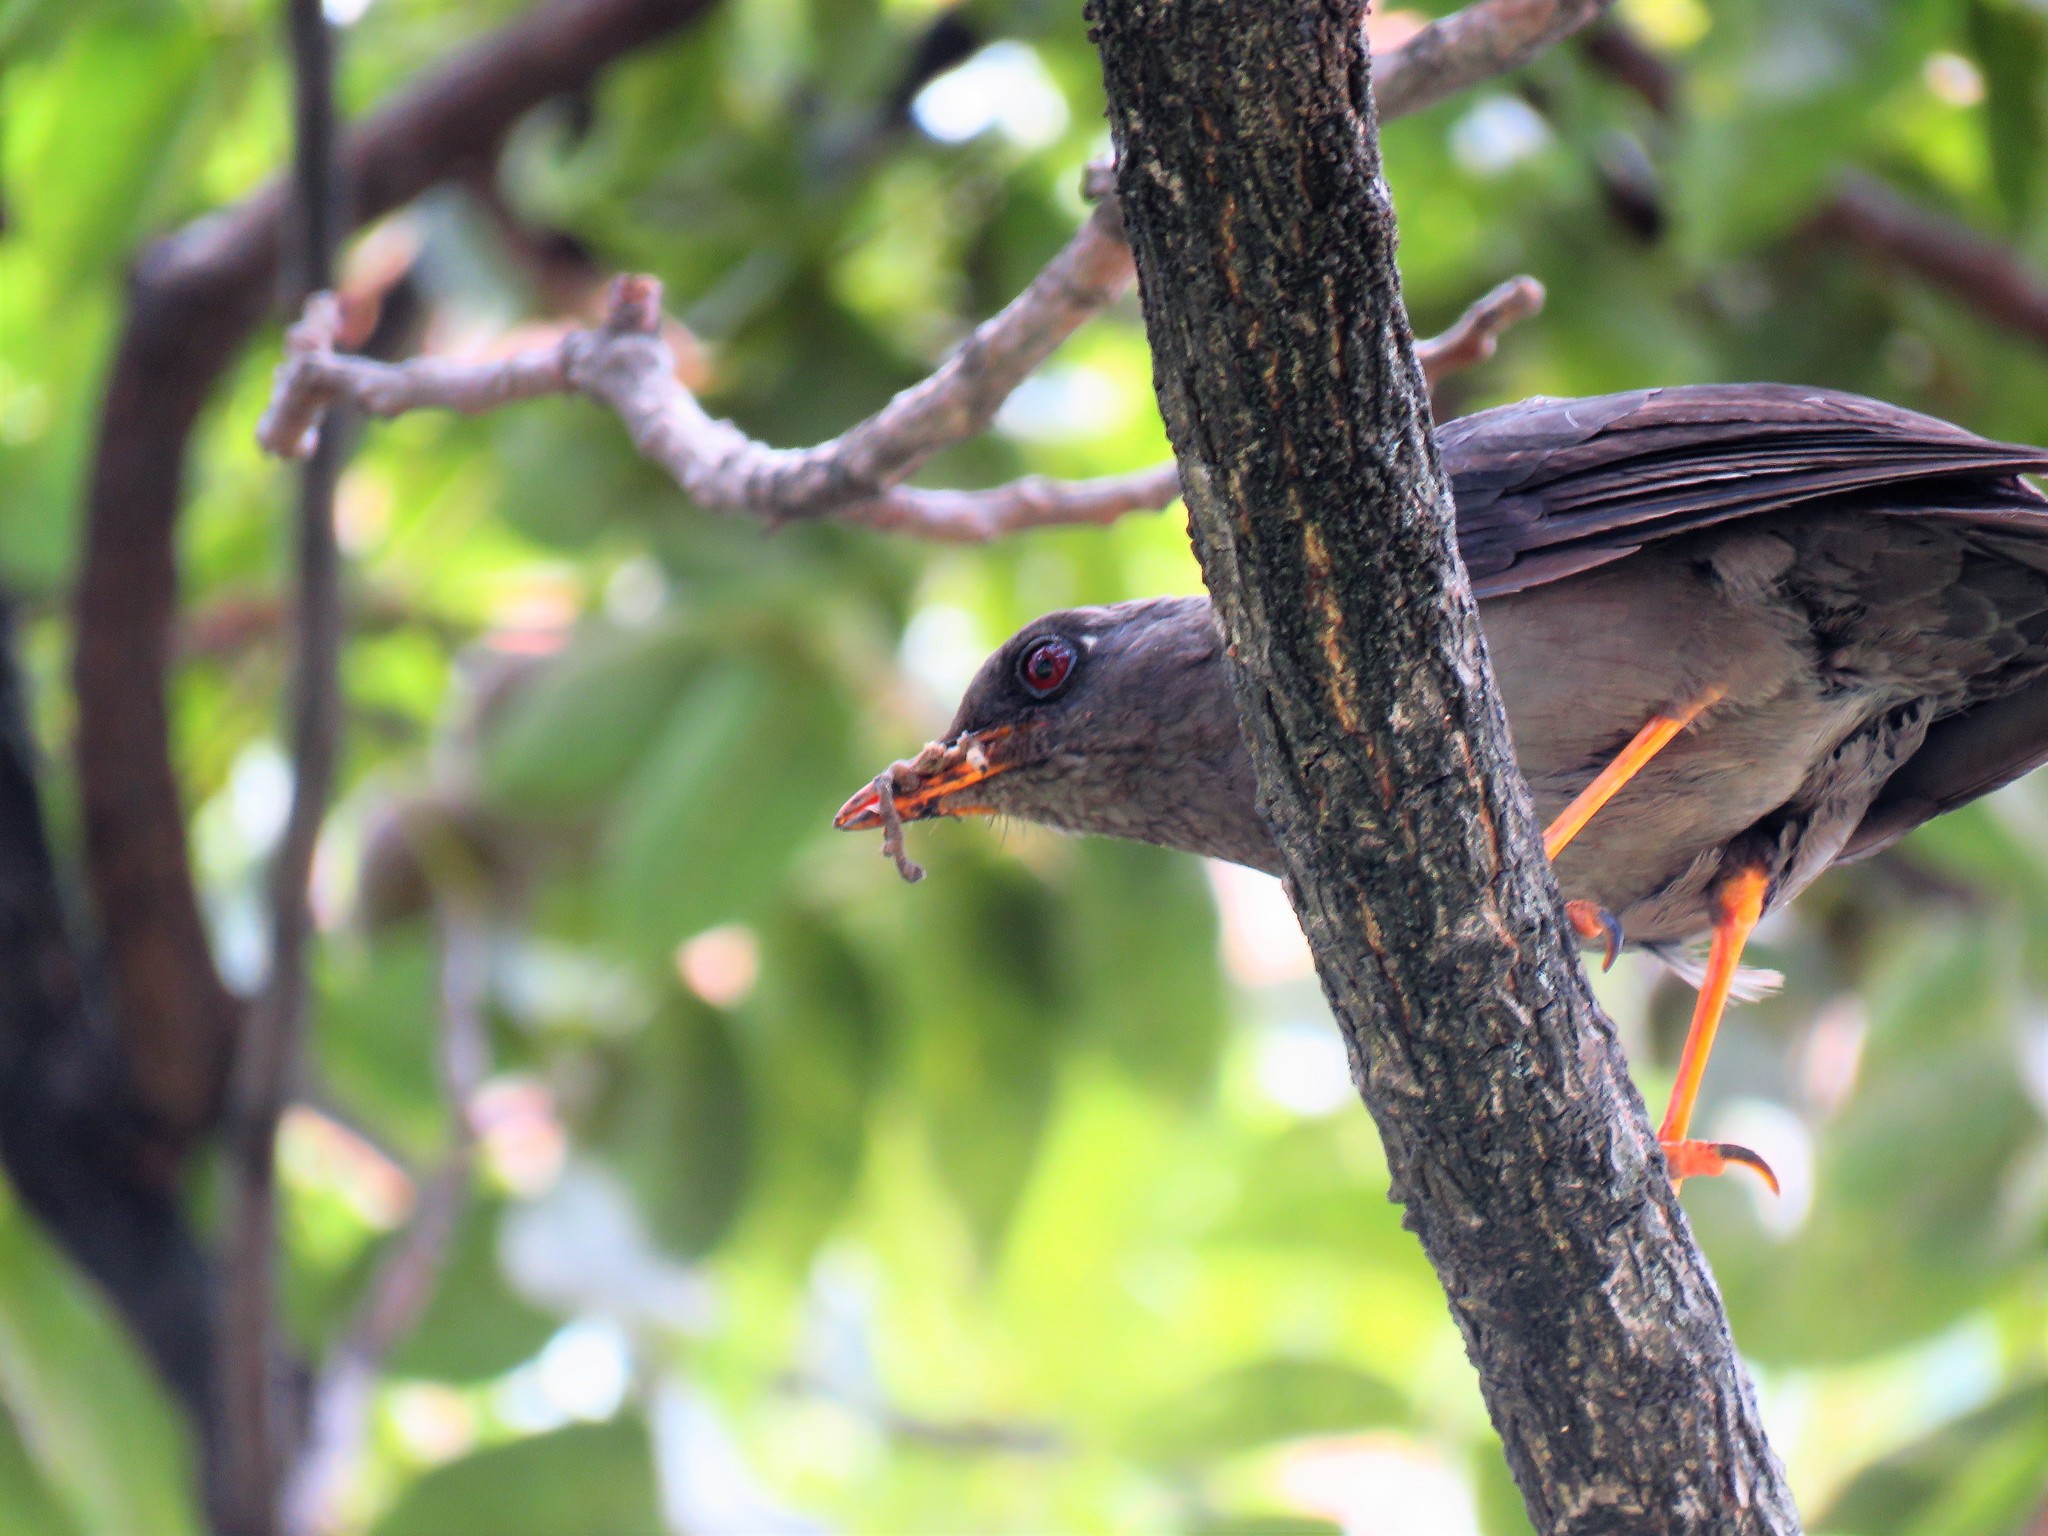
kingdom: Animalia
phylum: Chordata
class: Aves
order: Passeriformes
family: Turdidae
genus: Turdus
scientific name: Turdus fuscater
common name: Great thrush
